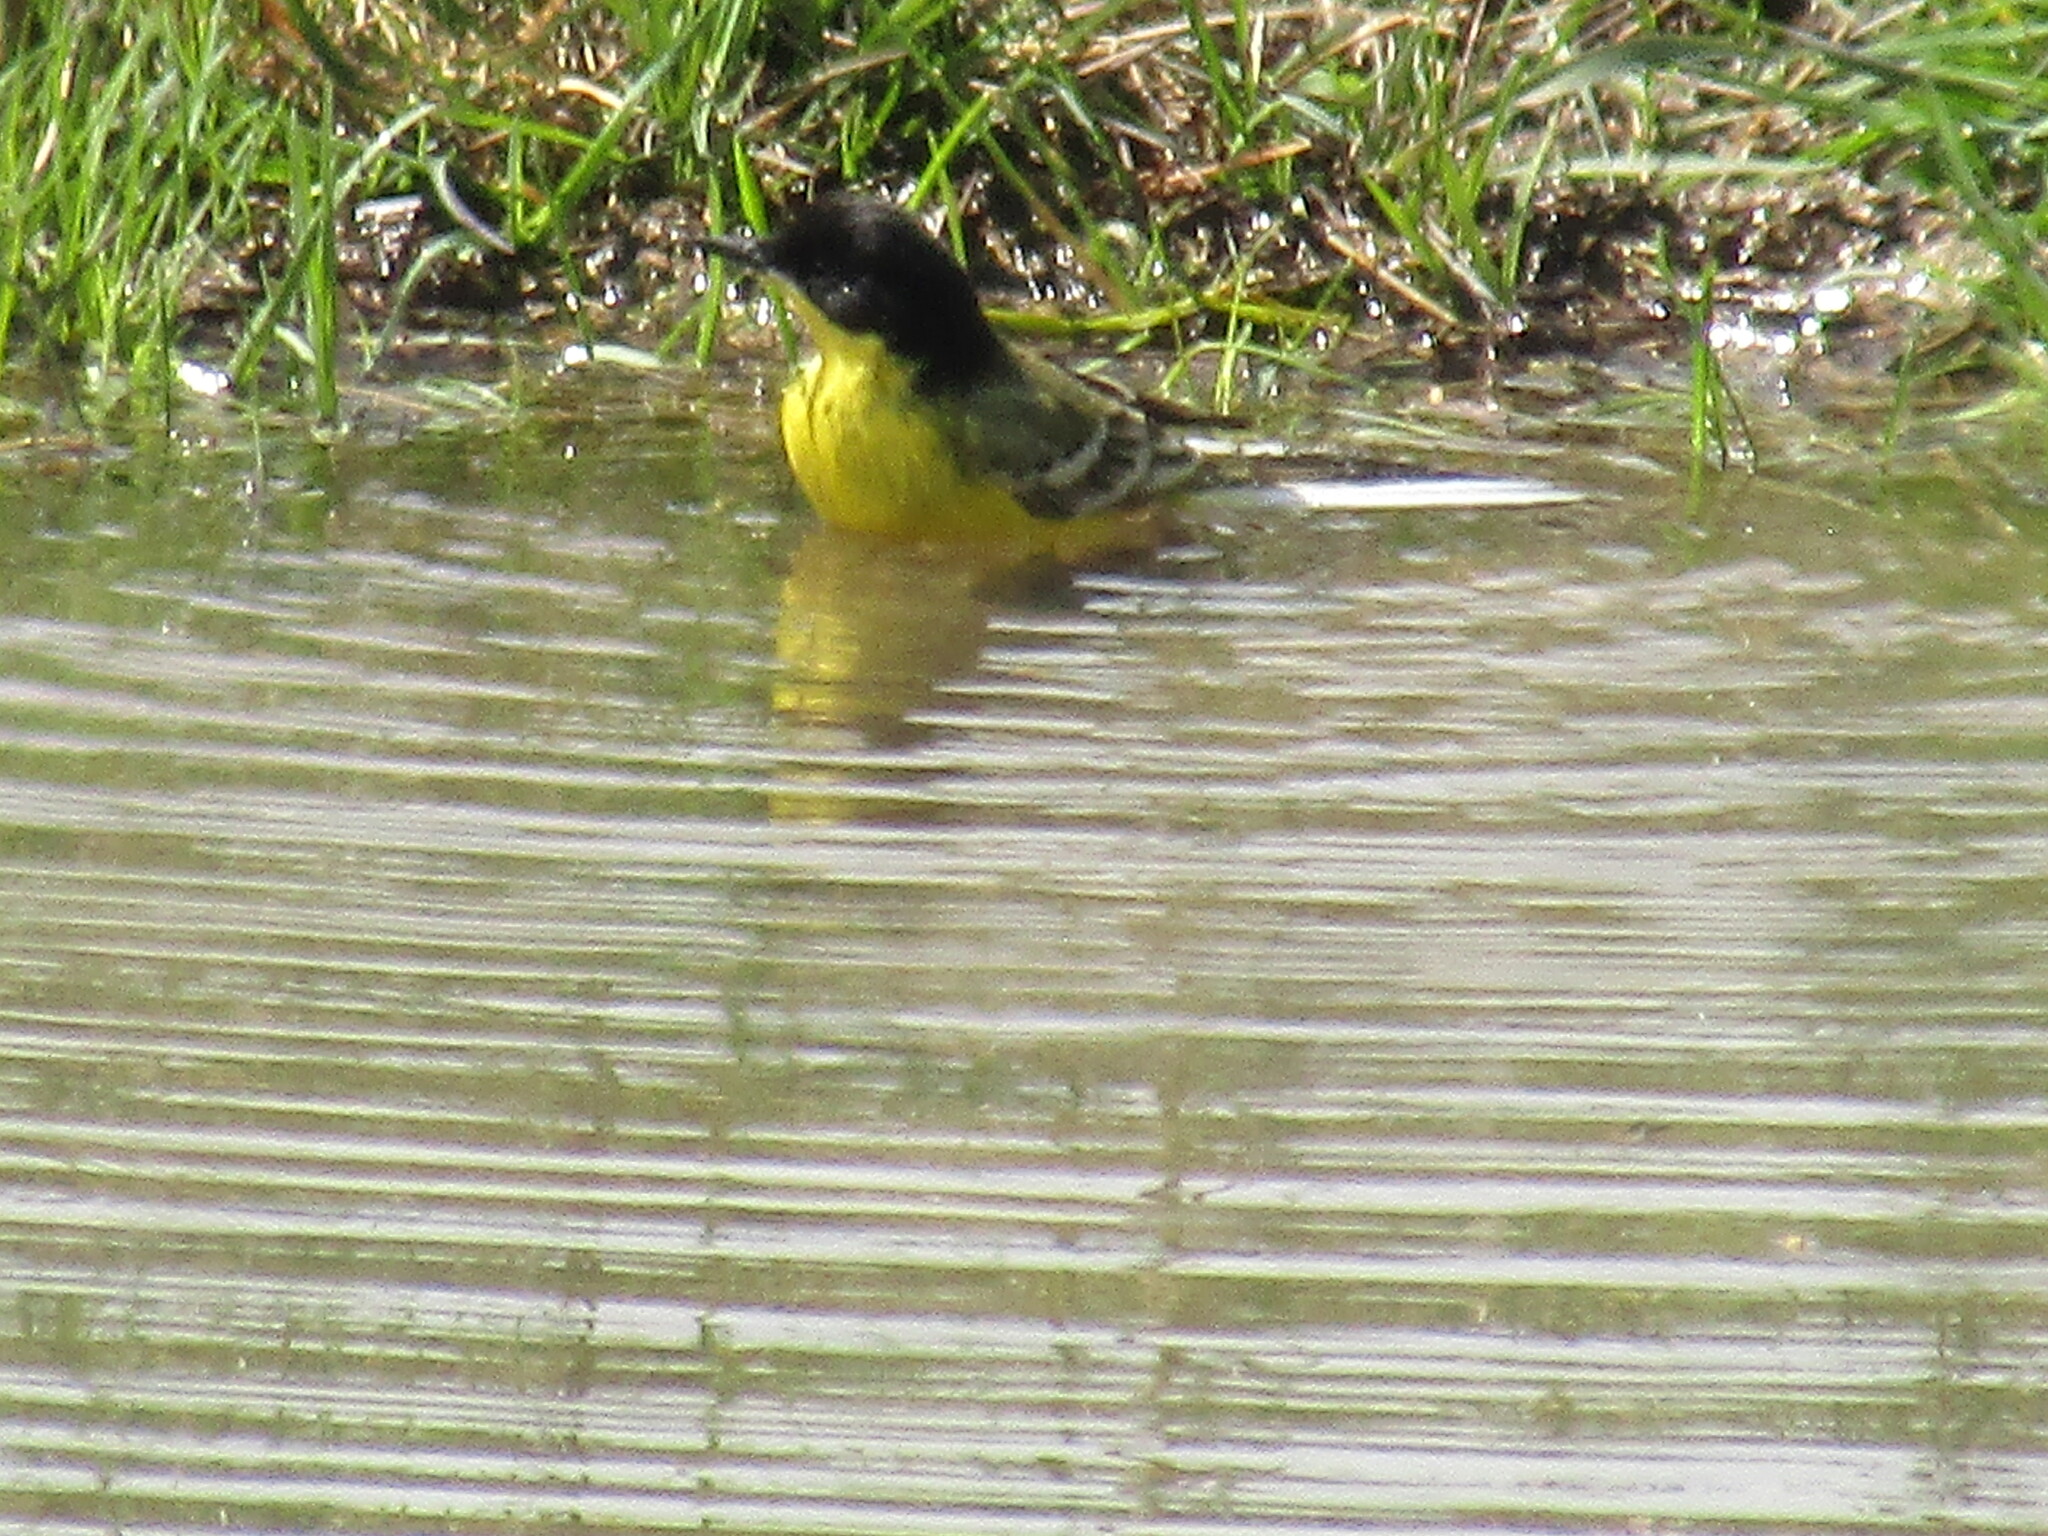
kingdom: Animalia
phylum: Chordata
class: Aves
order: Passeriformes
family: Motacillidae
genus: Motacilla
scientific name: Motacilla flava
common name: Western yellow wagtail
